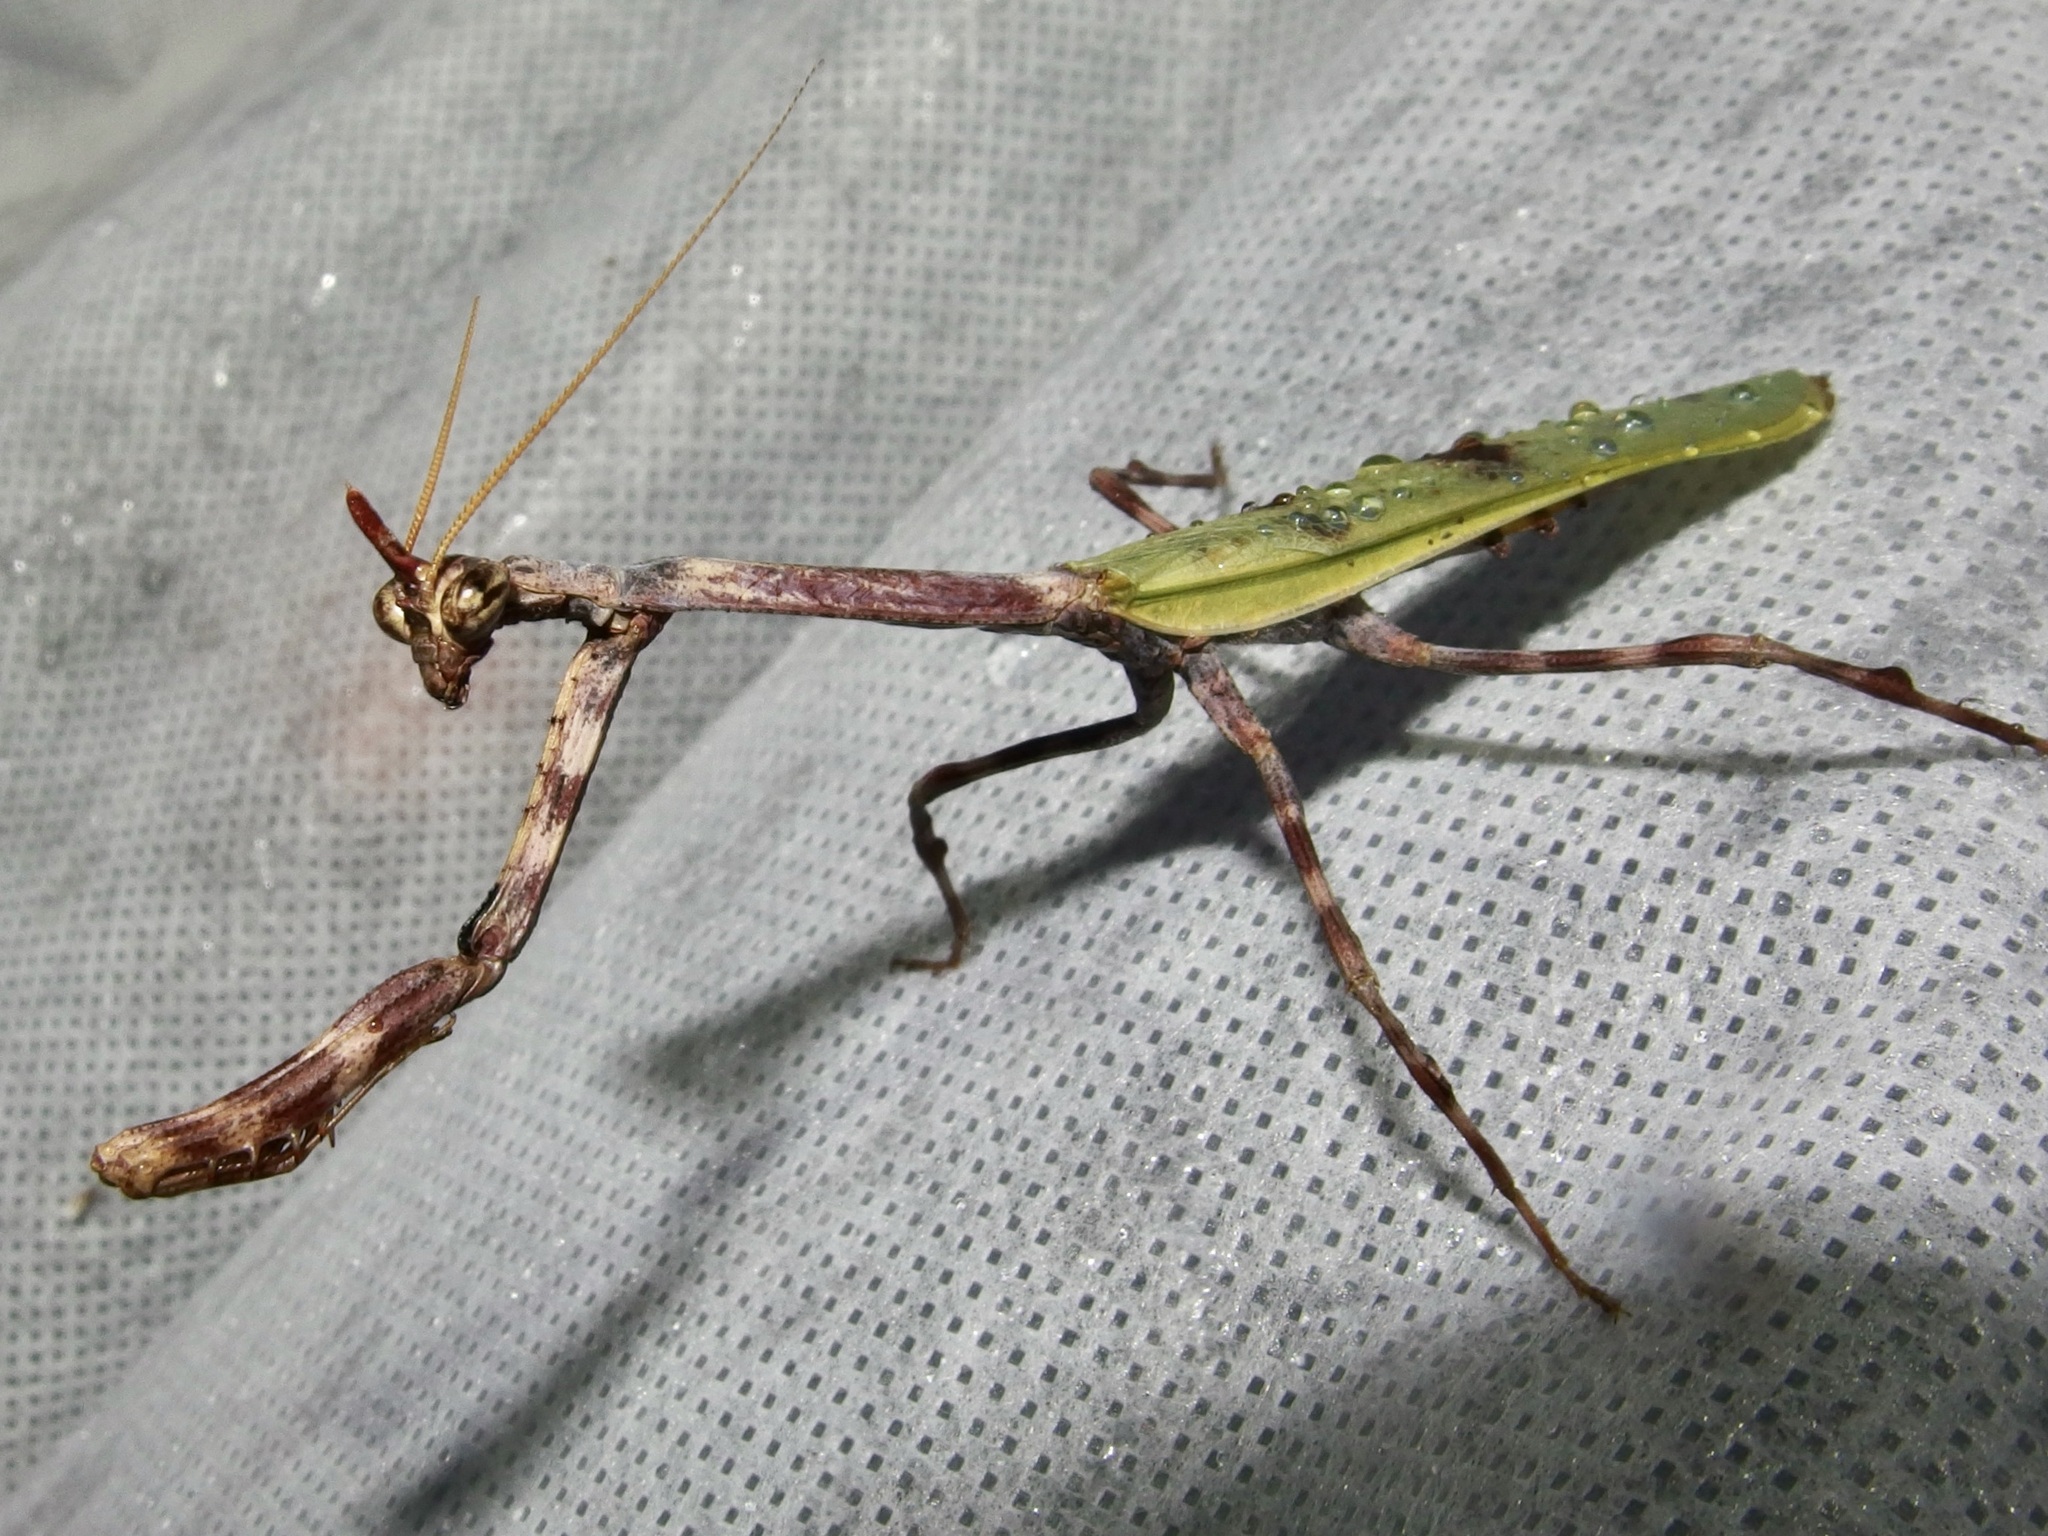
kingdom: Animalia
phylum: Arthropoda
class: Insecta
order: Mantodea
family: Mantidae
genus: Pseudovates
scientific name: Pseudovates arizonae
